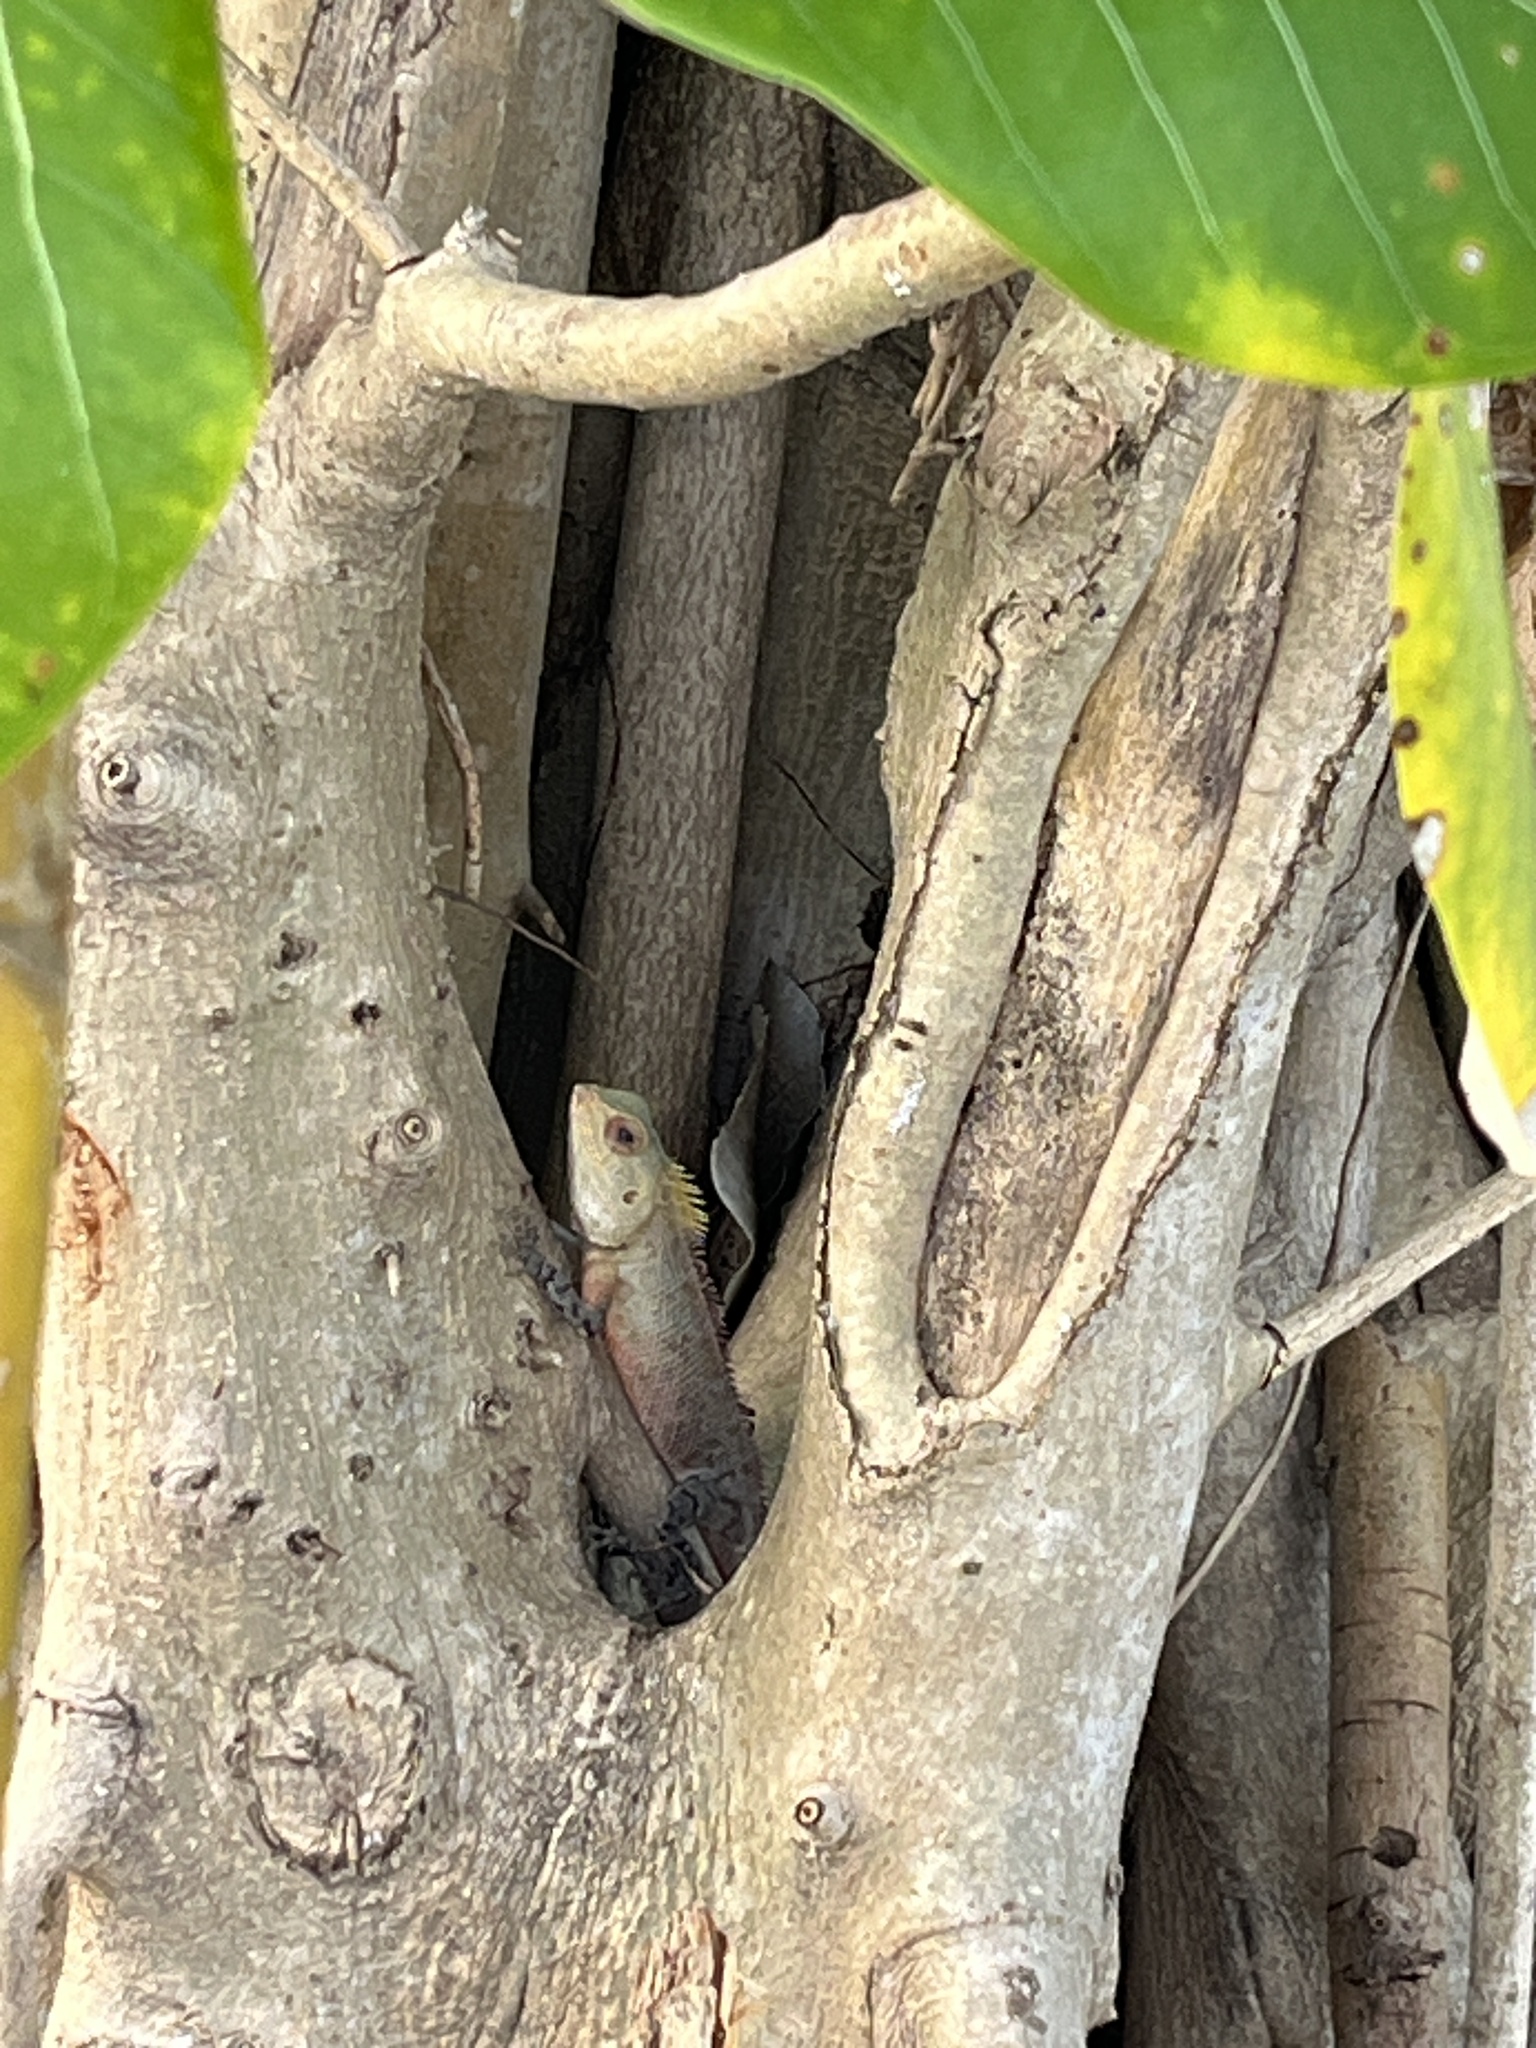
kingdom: Animalia
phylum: Chordata
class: Squamata
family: Agamidae
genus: Calotes
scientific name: Calotes versicolor
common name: Oriental garden lizard
